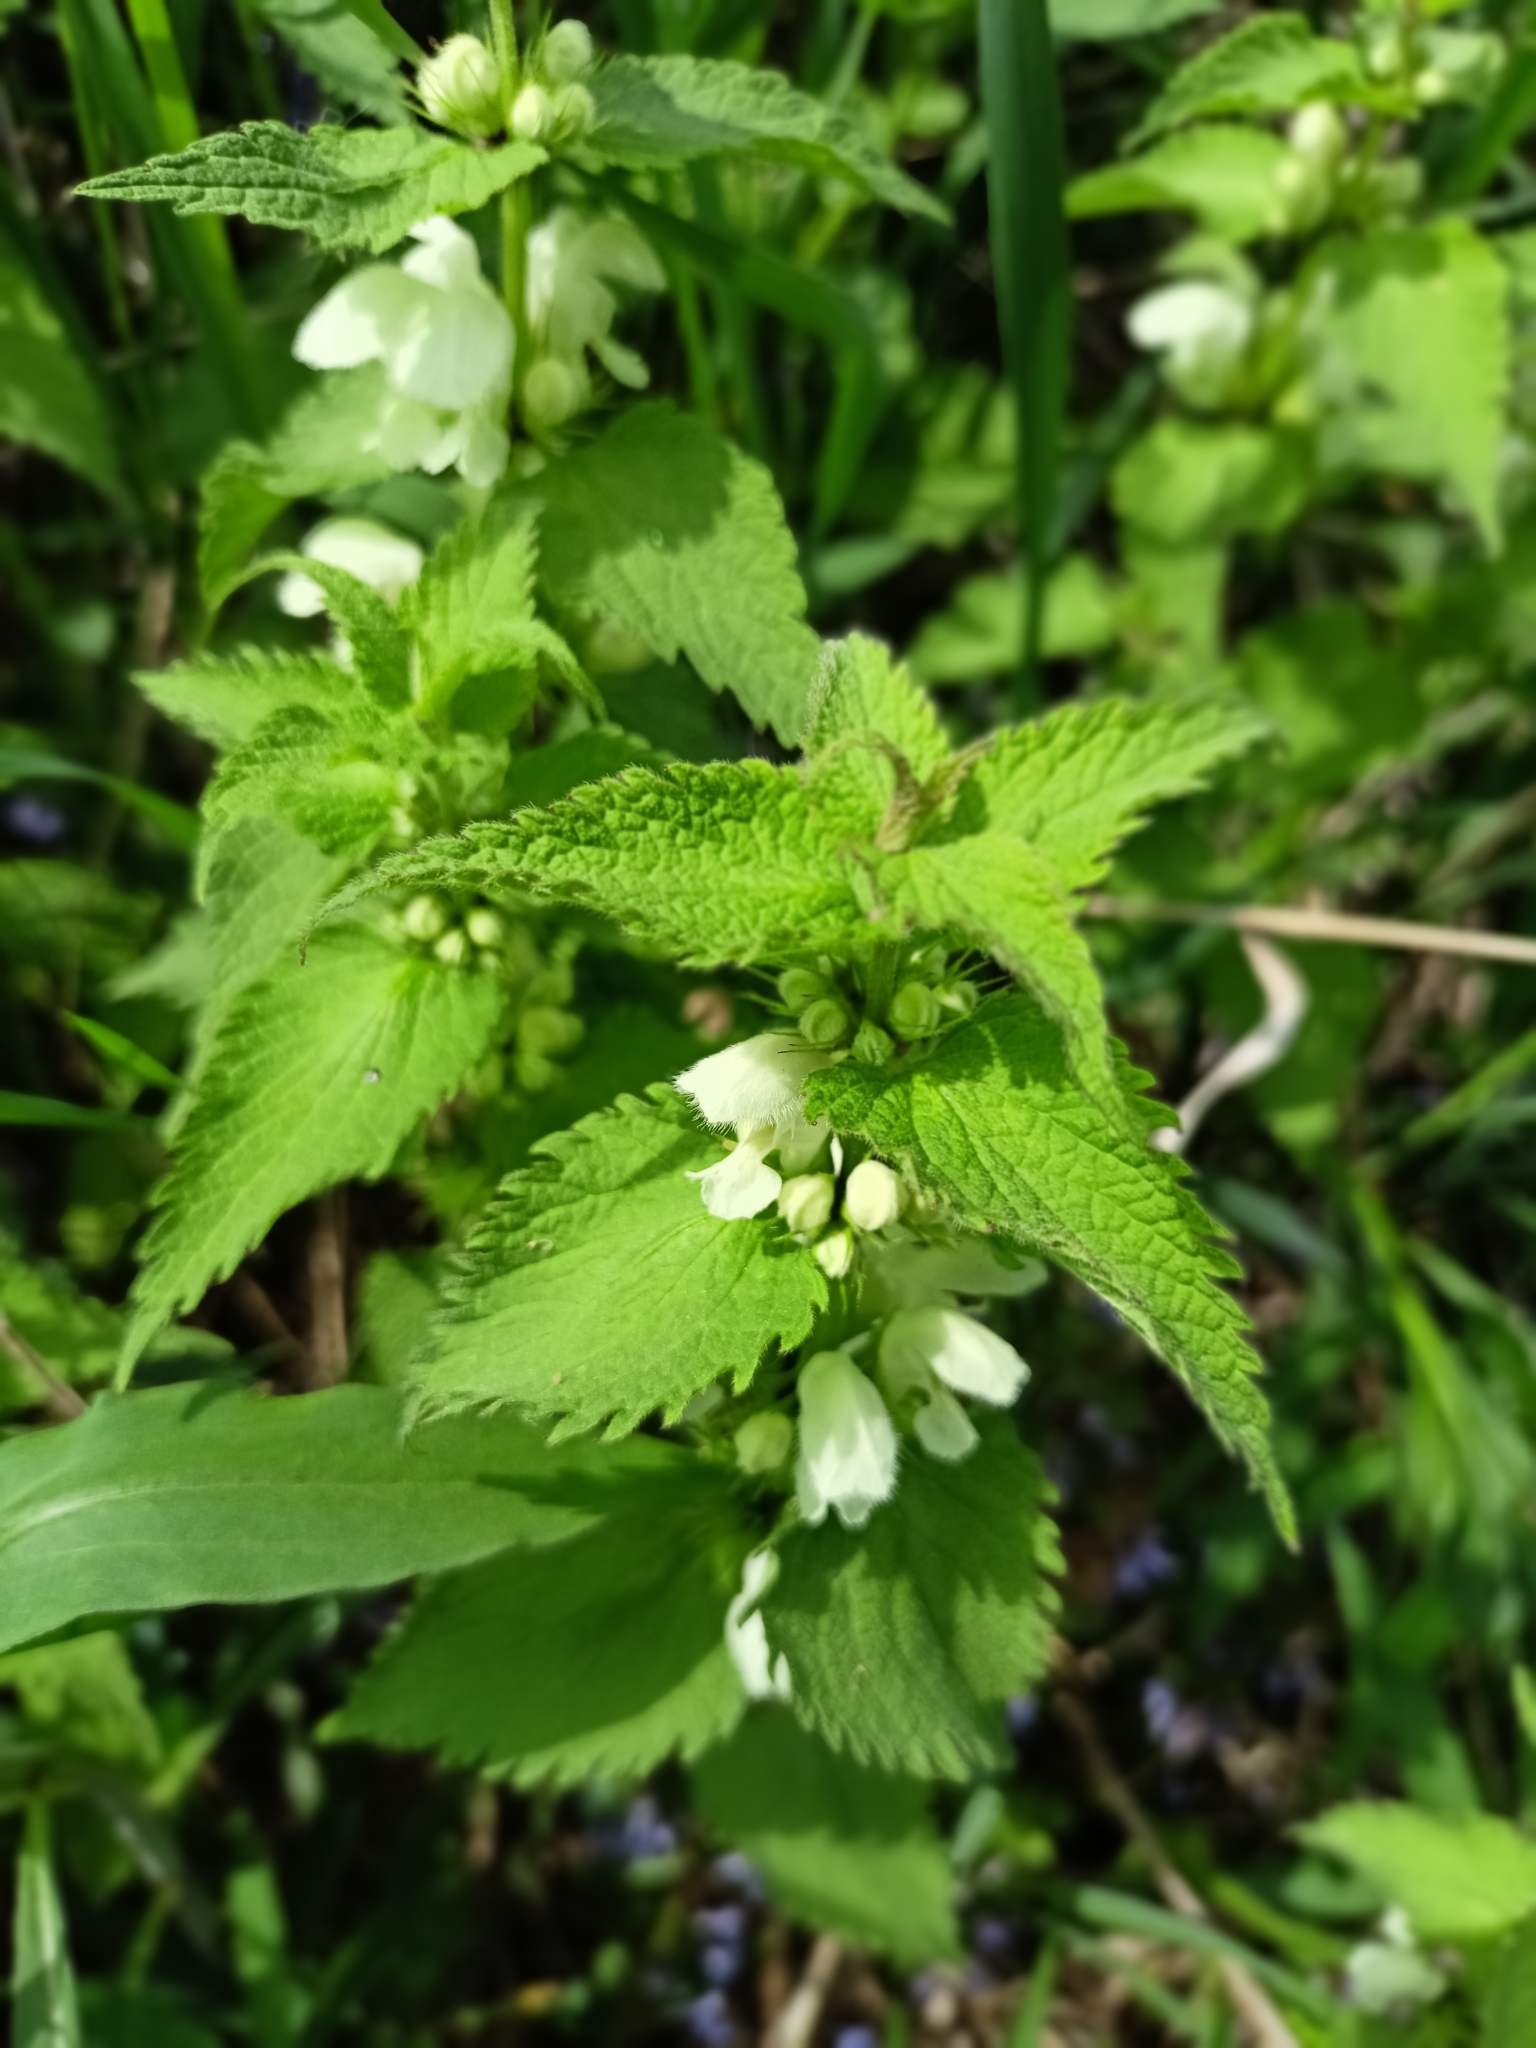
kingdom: Plantae
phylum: Tracheophyta
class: Magnoliopsida
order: Lamiales
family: Lamiaceae
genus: Lamium
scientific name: Lamium album
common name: White dead-nettle
